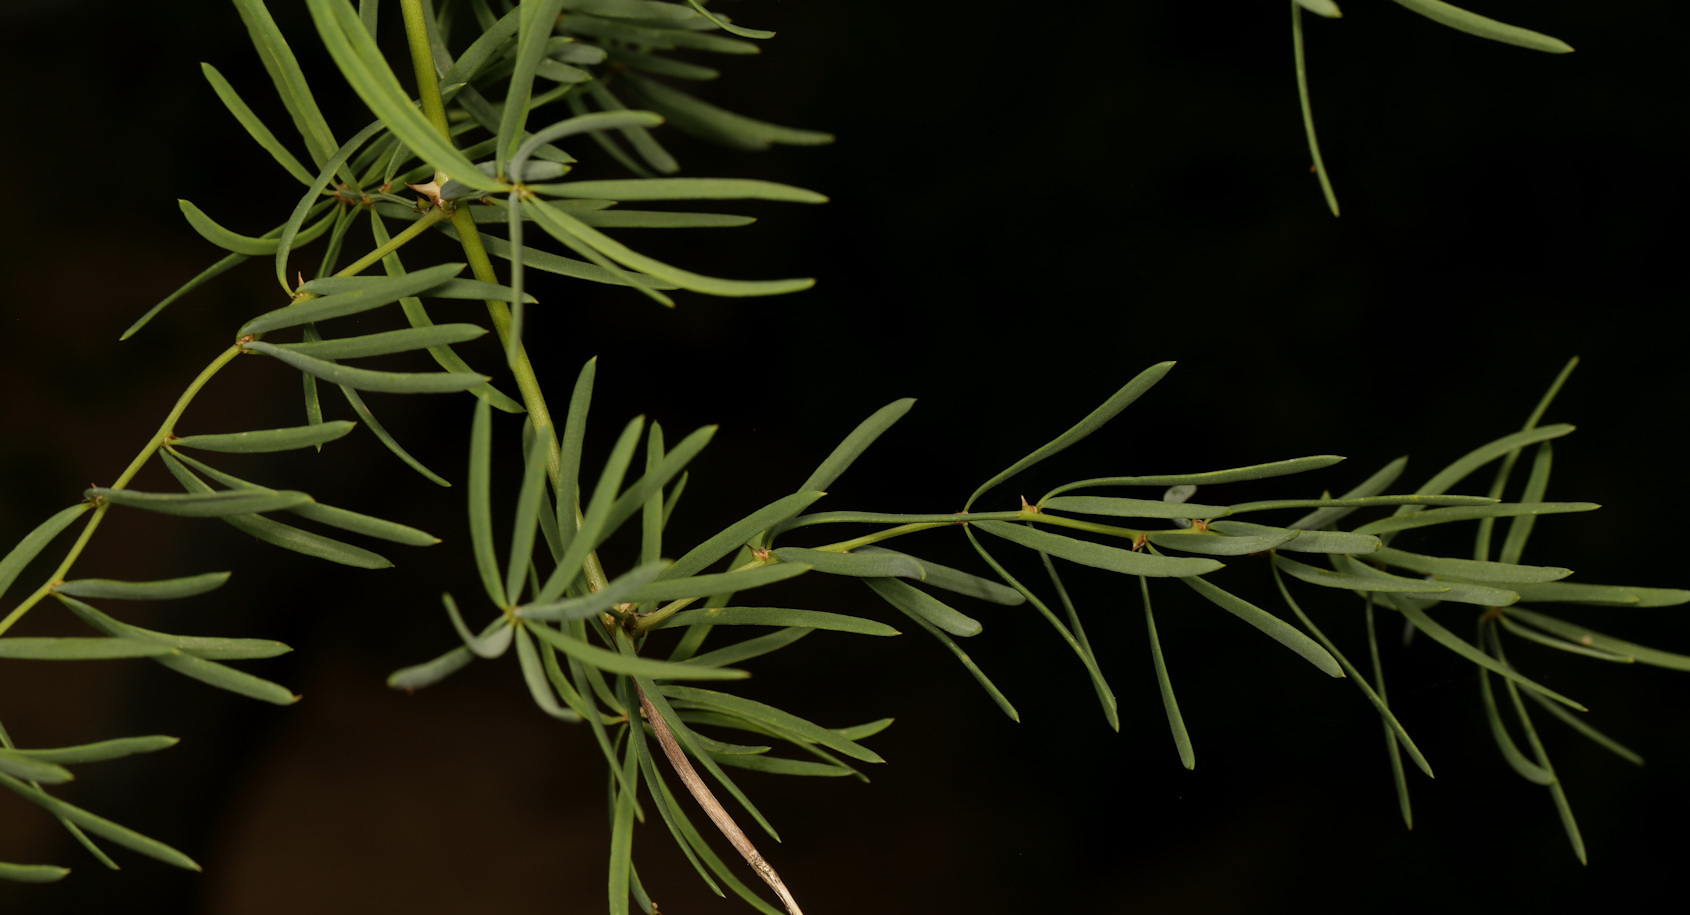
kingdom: Plantae
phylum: Tracheophyta
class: Liliopsida
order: Asparagales
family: Asparagaceae
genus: Asparagus
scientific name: Asparagus falcatus
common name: Asparagus
